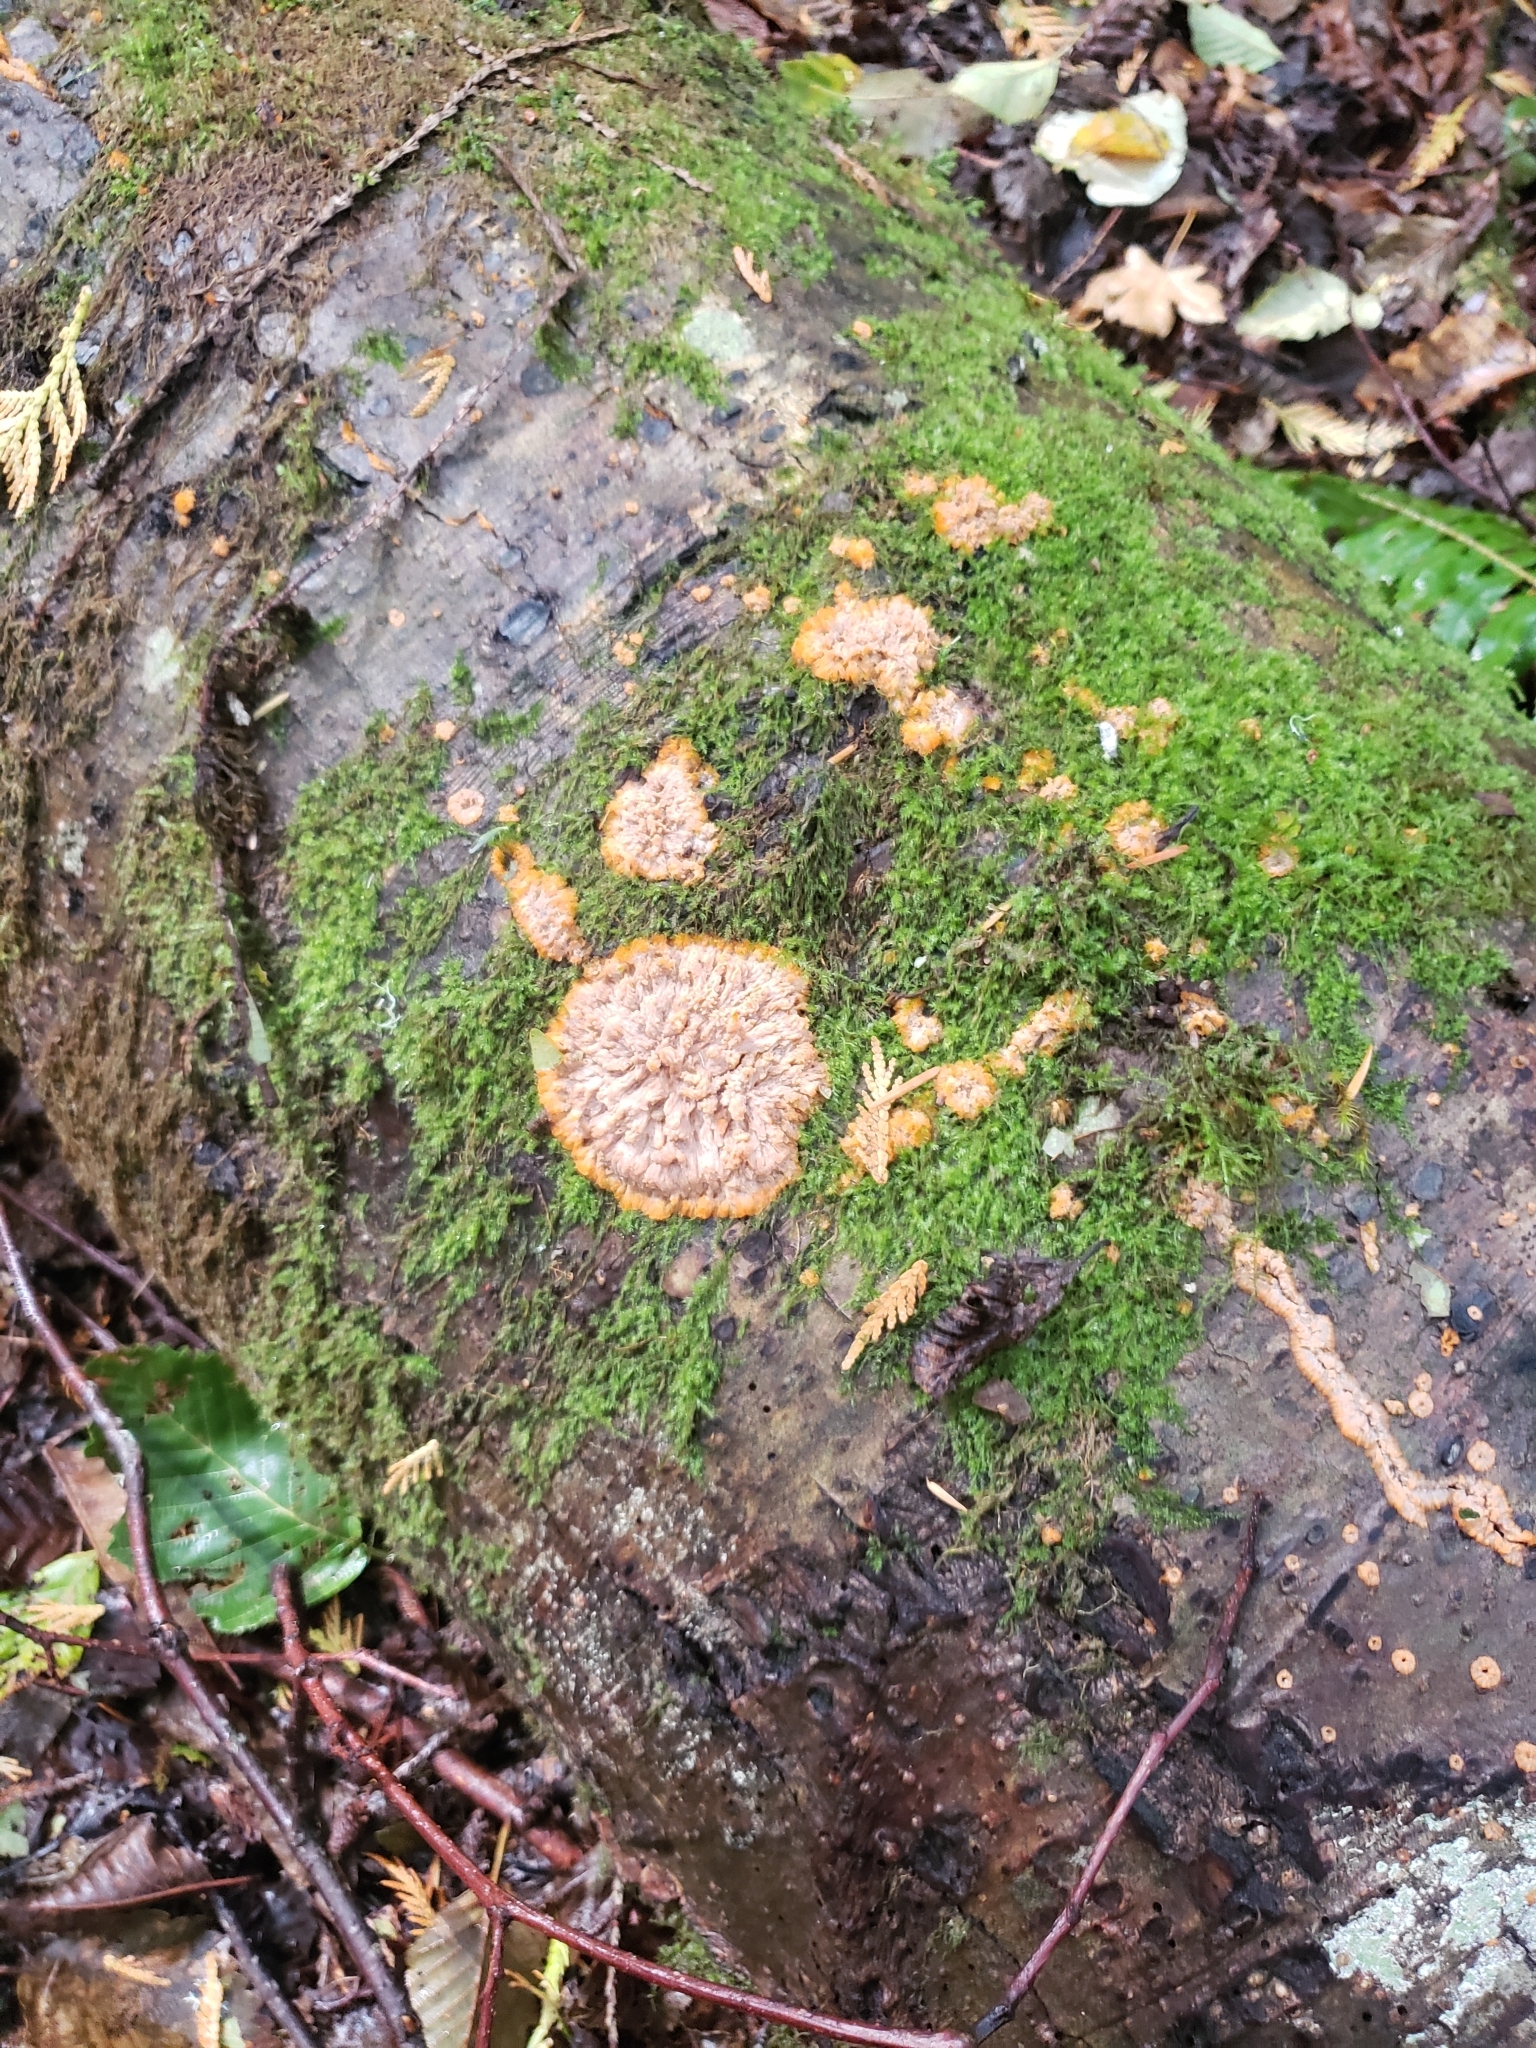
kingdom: Fungi
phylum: Basidiomycota
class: Agaricomycetes
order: Polyporales
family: Meruliaceae
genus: Phlebia
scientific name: Phlebia radiata
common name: Wrinkled crust
